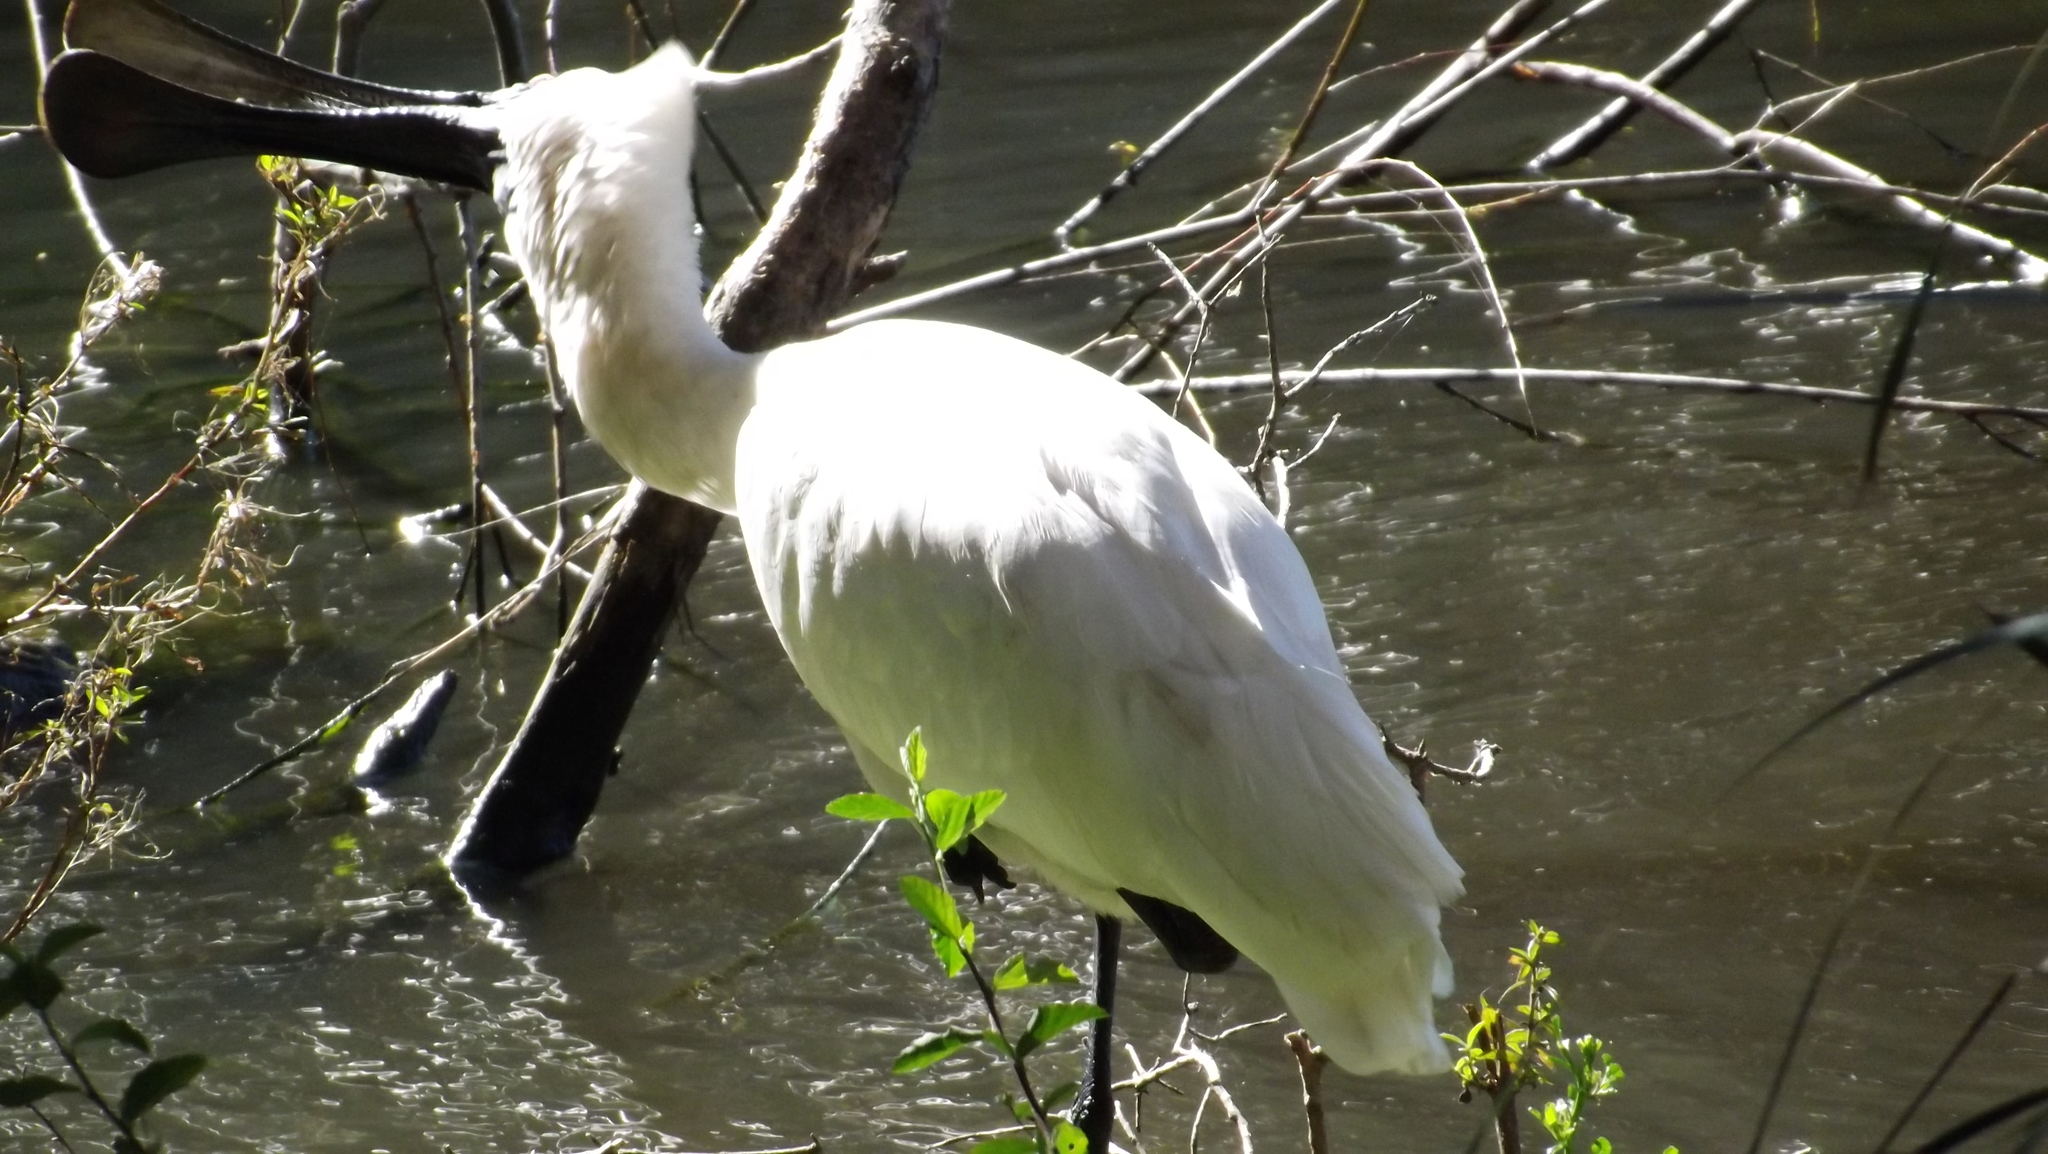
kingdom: Animalia
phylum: Chordata
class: Aves
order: Pelecaniformes
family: Threskiornithidae
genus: Platalea
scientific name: Platalea regia
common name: Royal spoonbill
